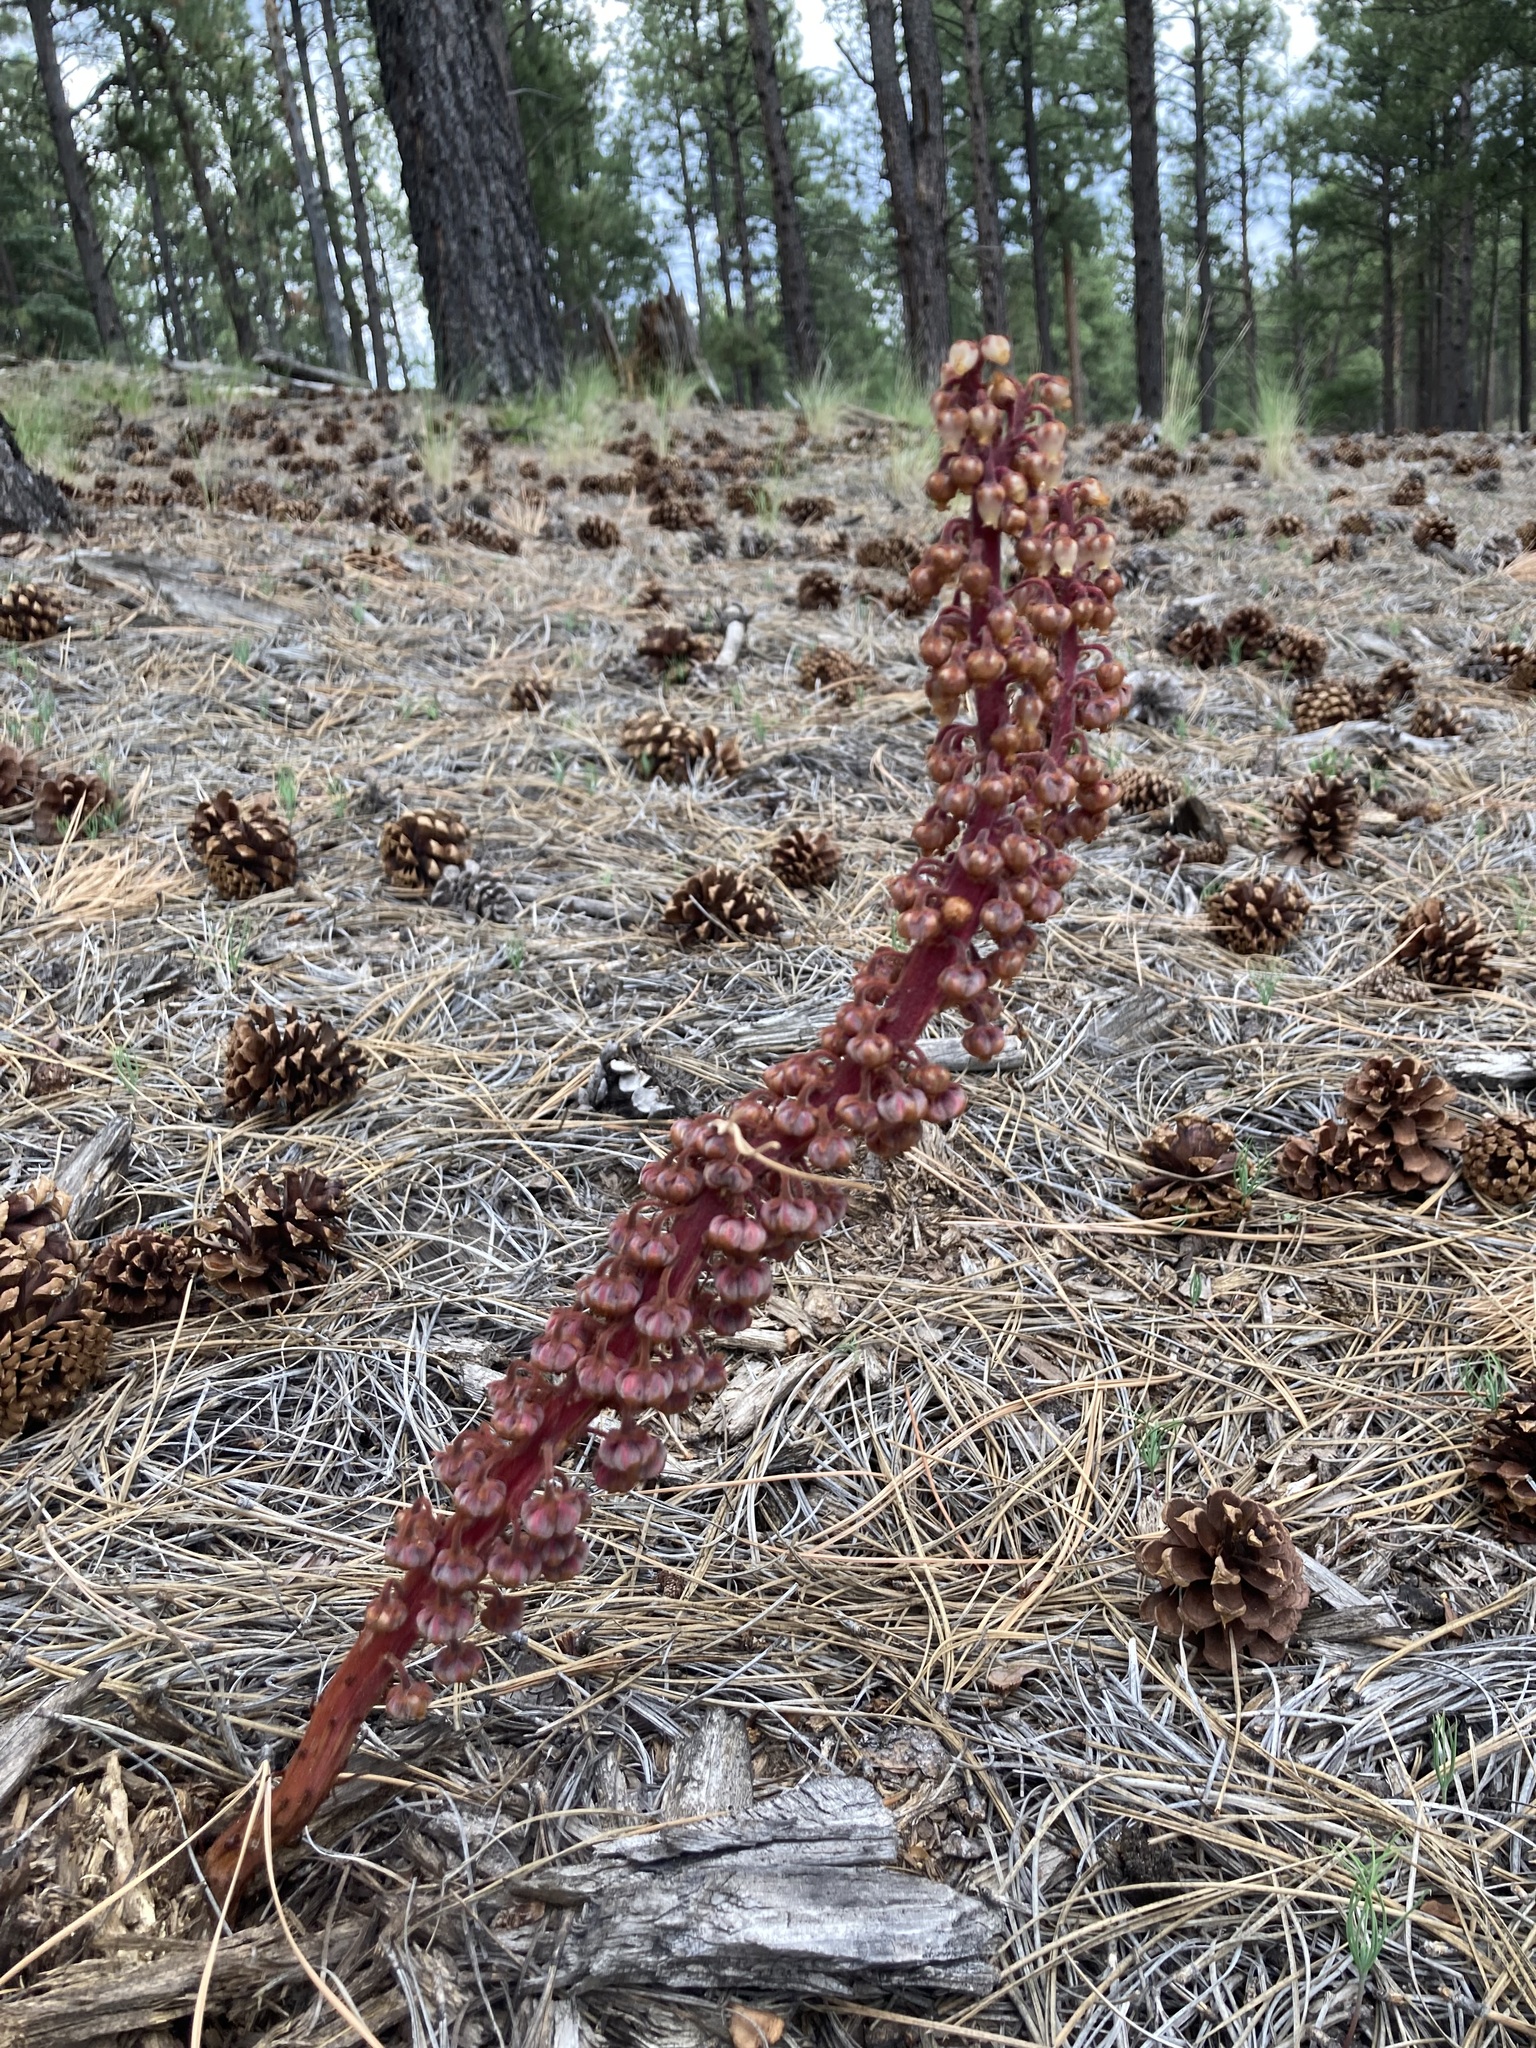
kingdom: Plantae
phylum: Tracheophyta
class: Magnoliopsida
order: Ericales
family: Ericaceae
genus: Pterospora
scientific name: Pterospora andromedea
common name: Giant bird's-nest
